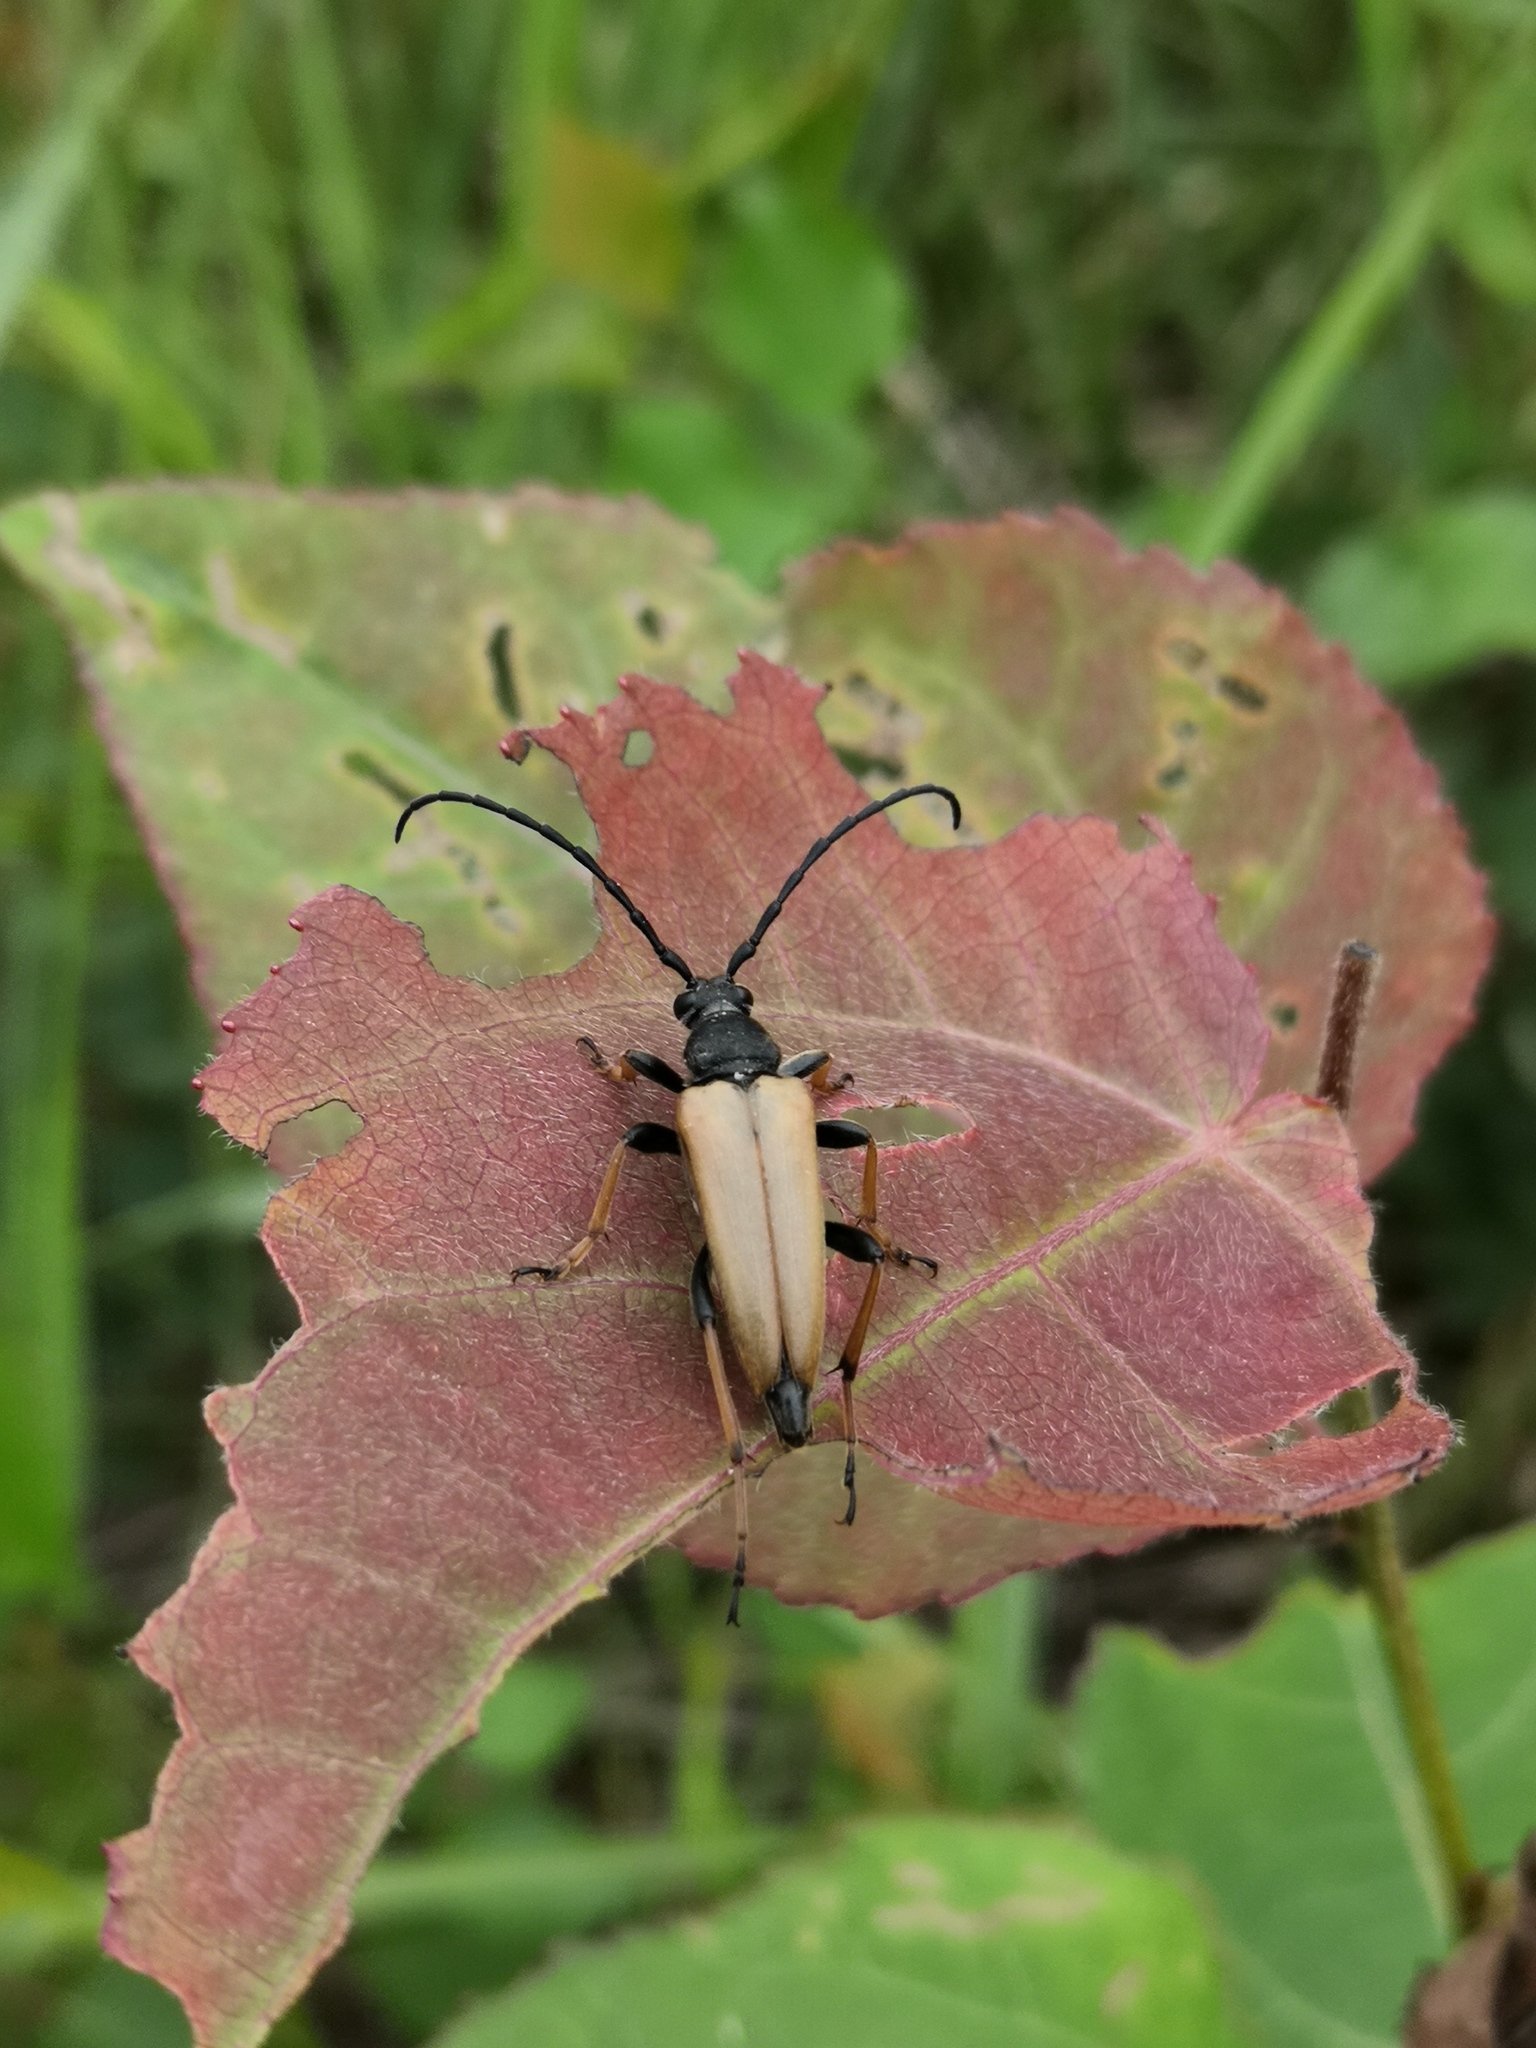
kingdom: Animalia
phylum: Arthropoda
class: Insecta
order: Coleoptera
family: Cerambycidae
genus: Stictoleptura
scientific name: Stictoleptura rubra
